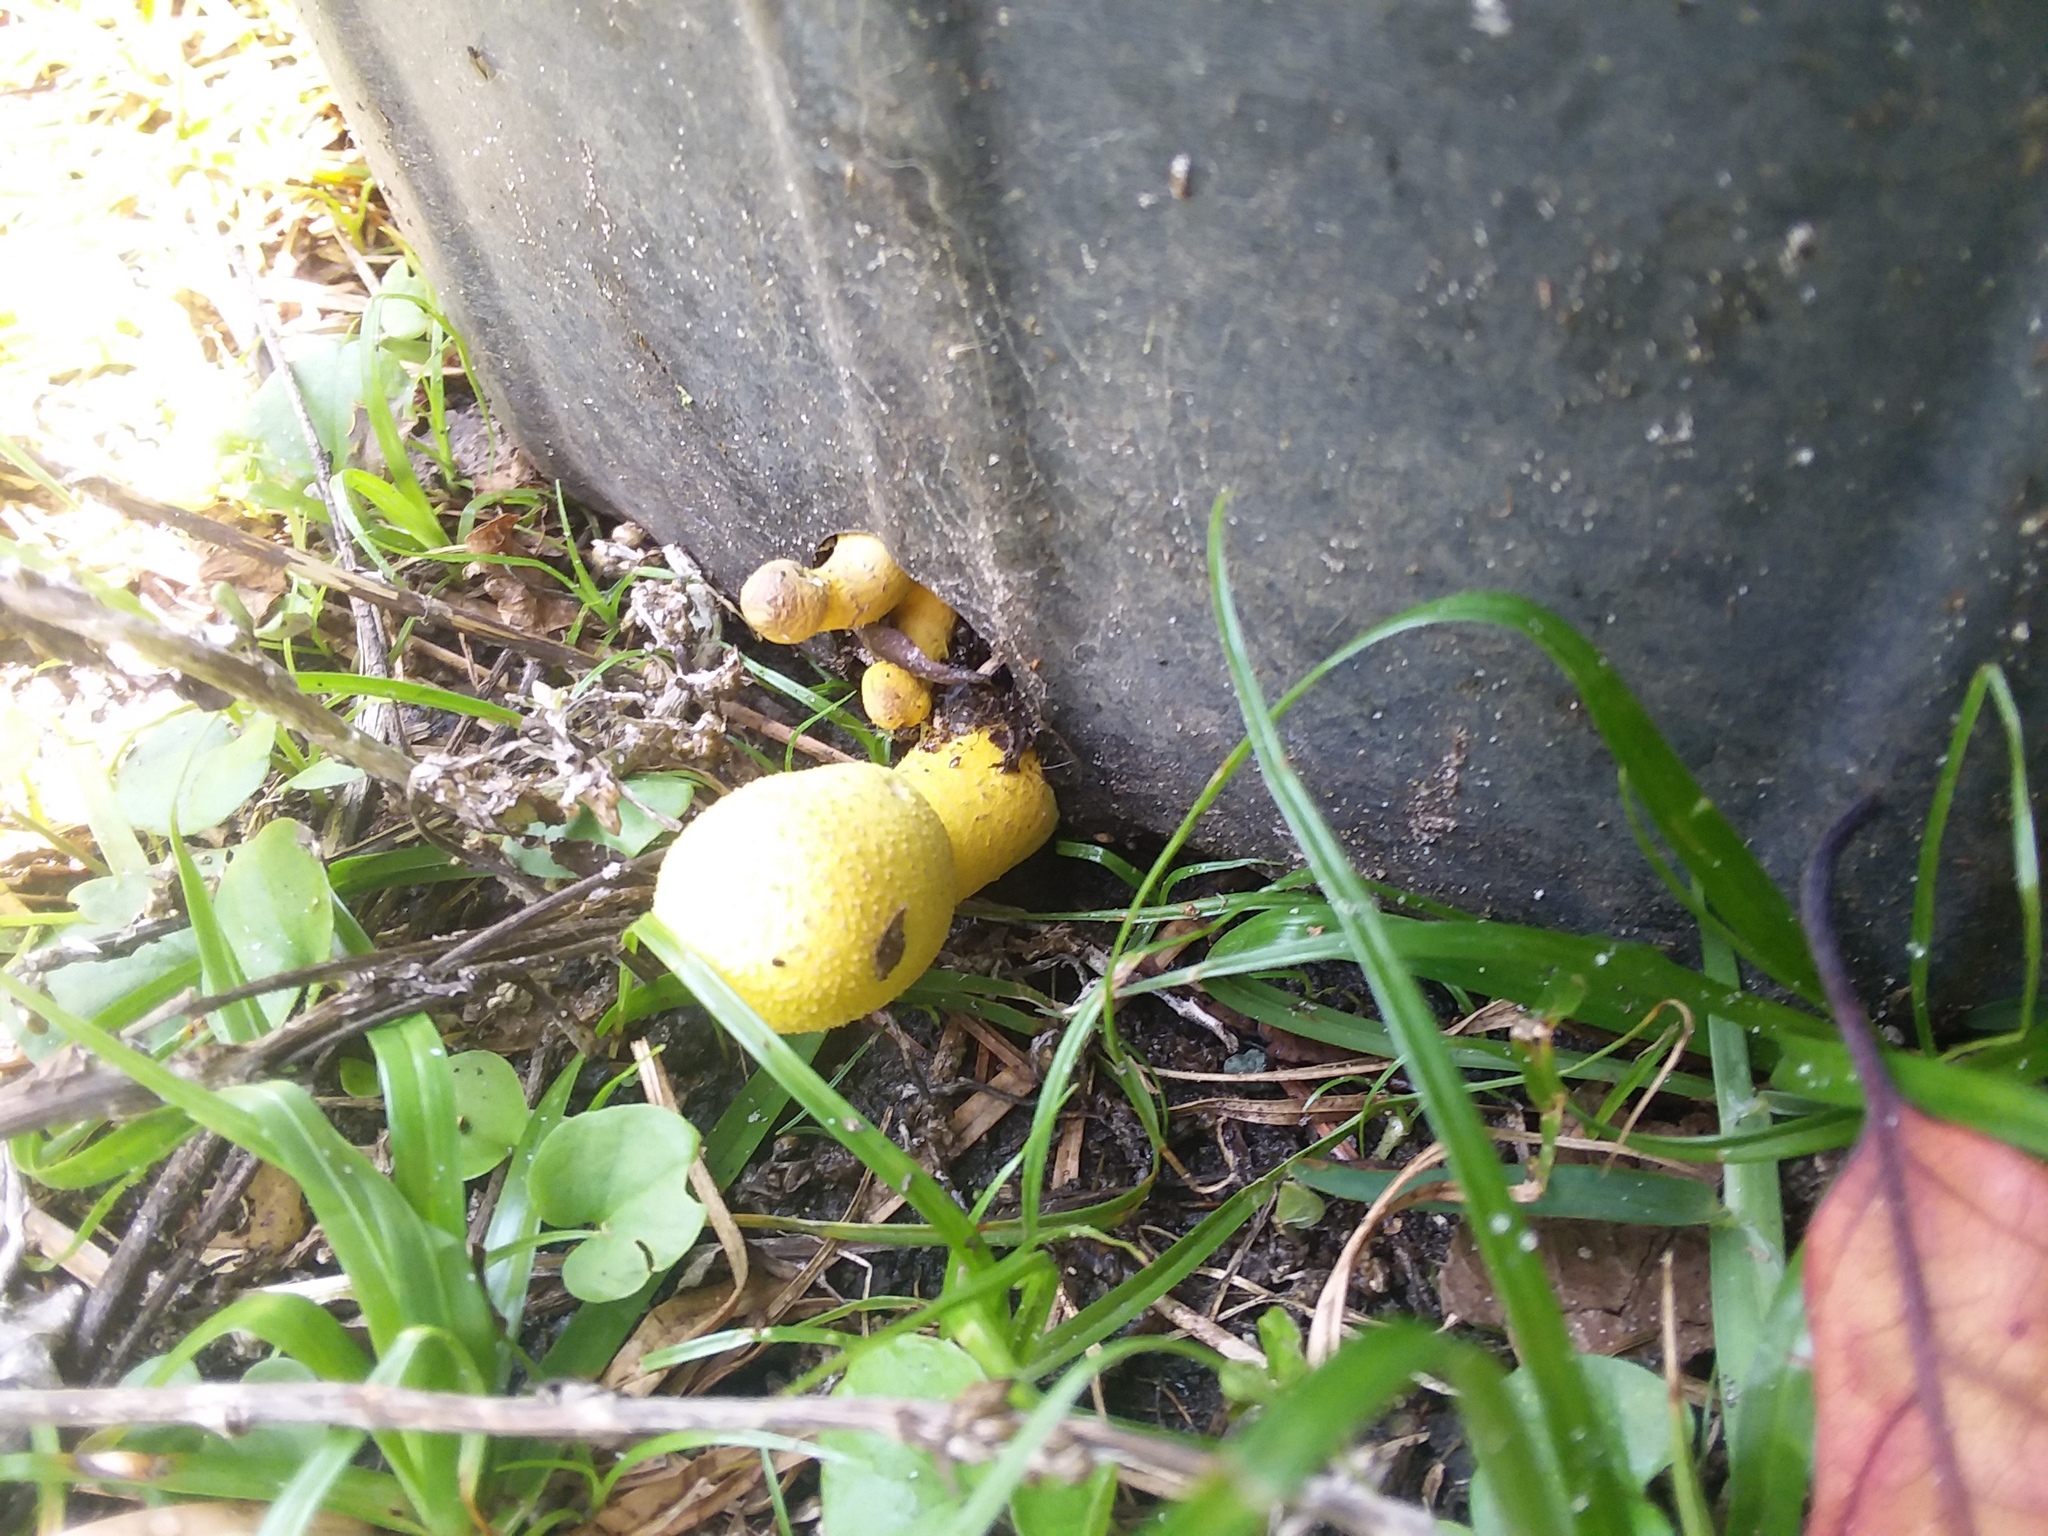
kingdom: Fungi
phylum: Basidiomycota
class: Agaricomycetes
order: Agaricales
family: Agaricaceae
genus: Leucocoprinus
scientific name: Leucocoprinus birnbaumii
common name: Plantpot dapperling
